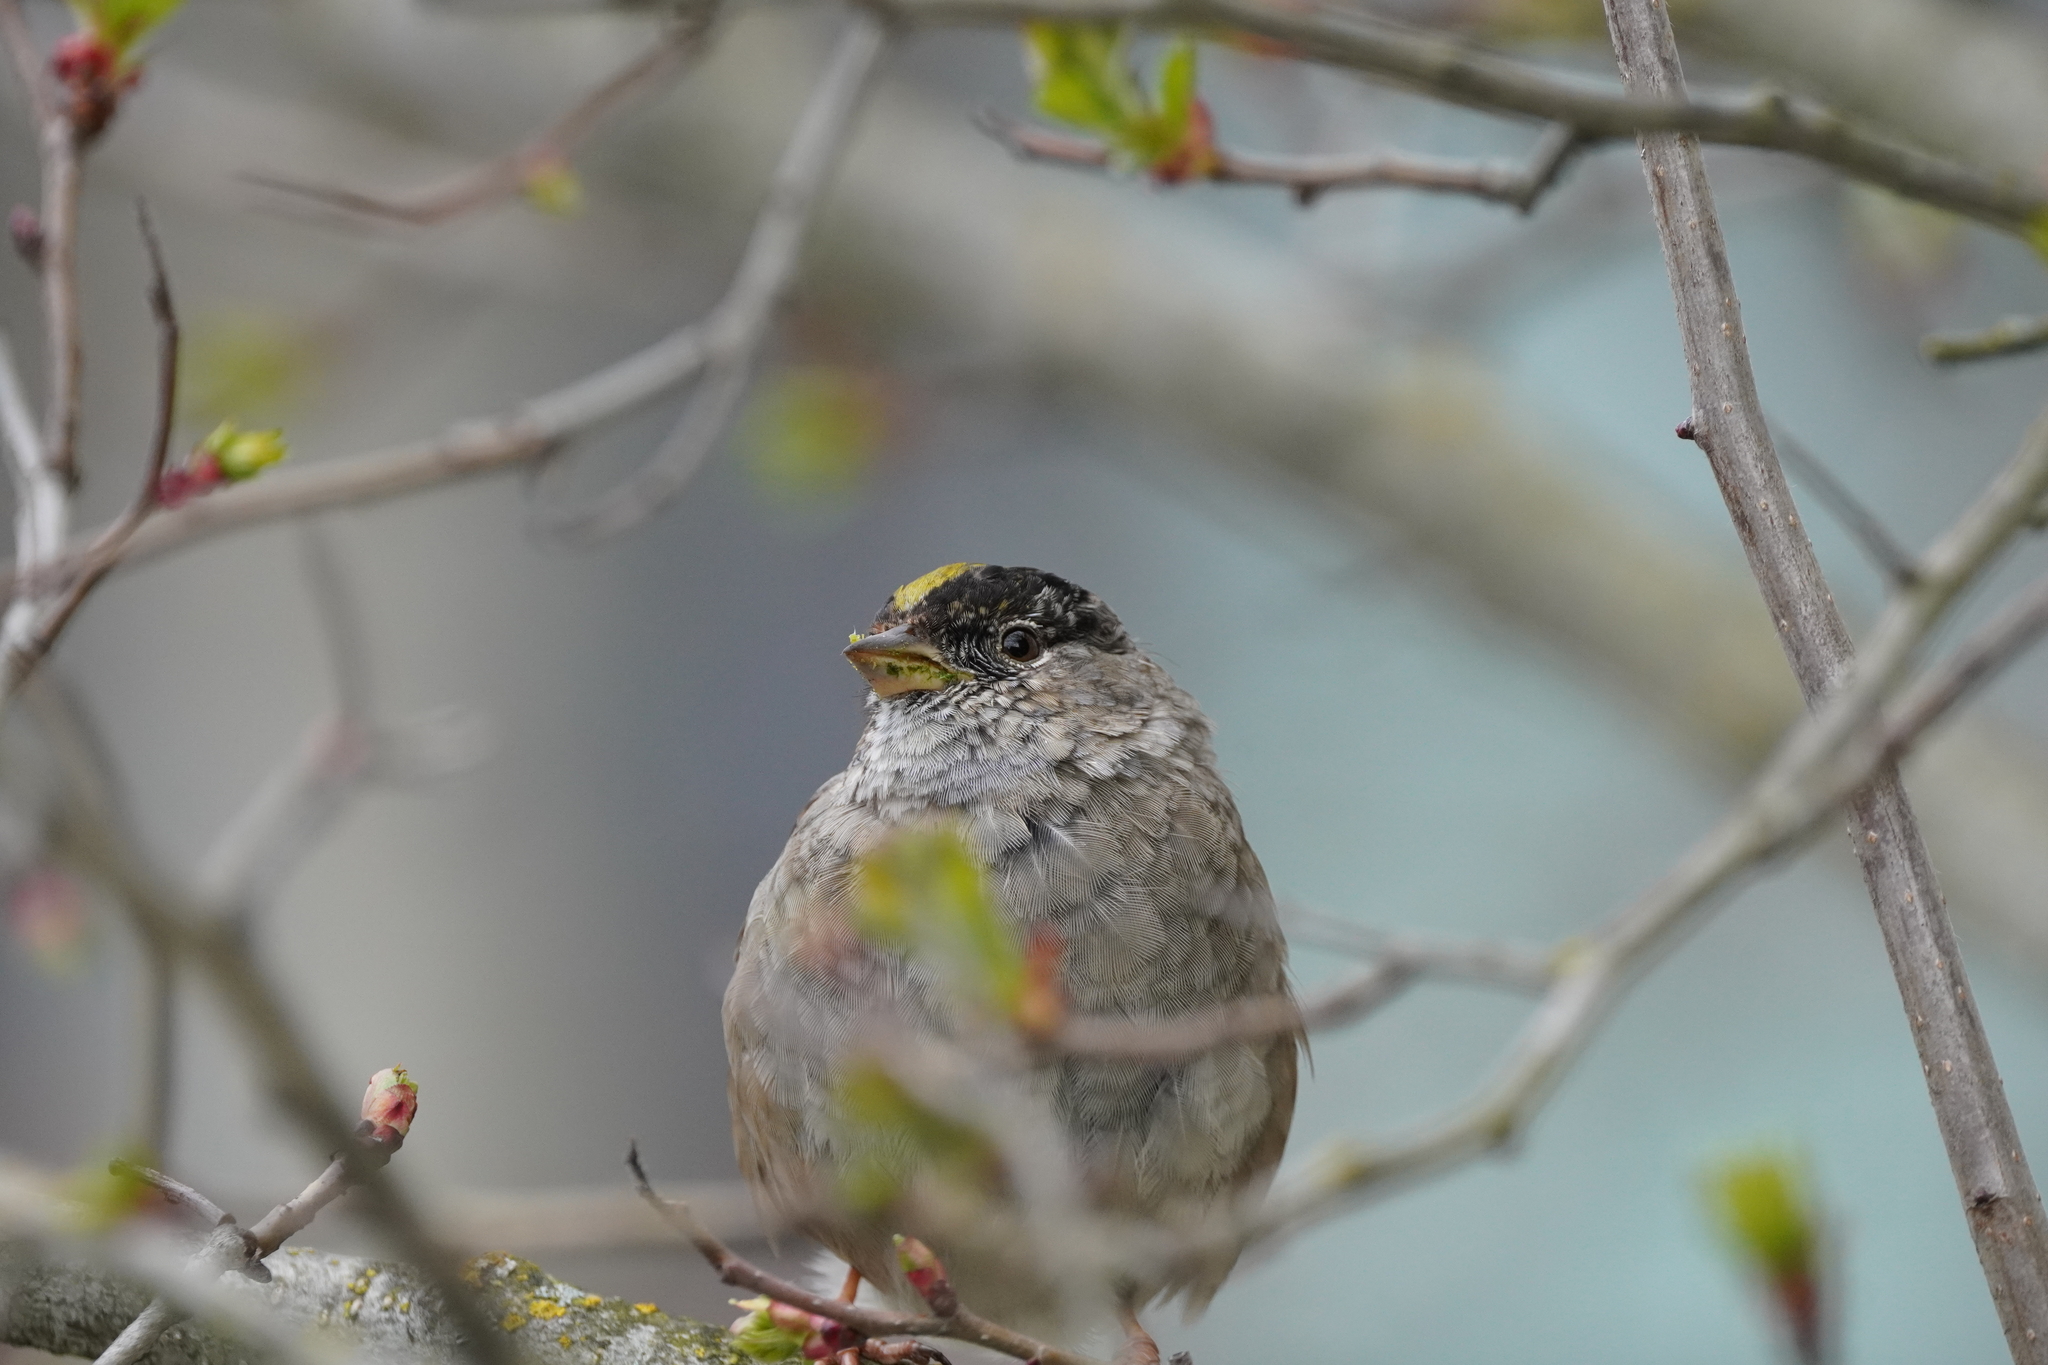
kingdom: Animalia
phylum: Chordata
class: Aves
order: Passeriformes
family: Passerellidae
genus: Zonotrichia
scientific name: Zonotrichia atricapilla
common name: Golden-crowned sparrow
